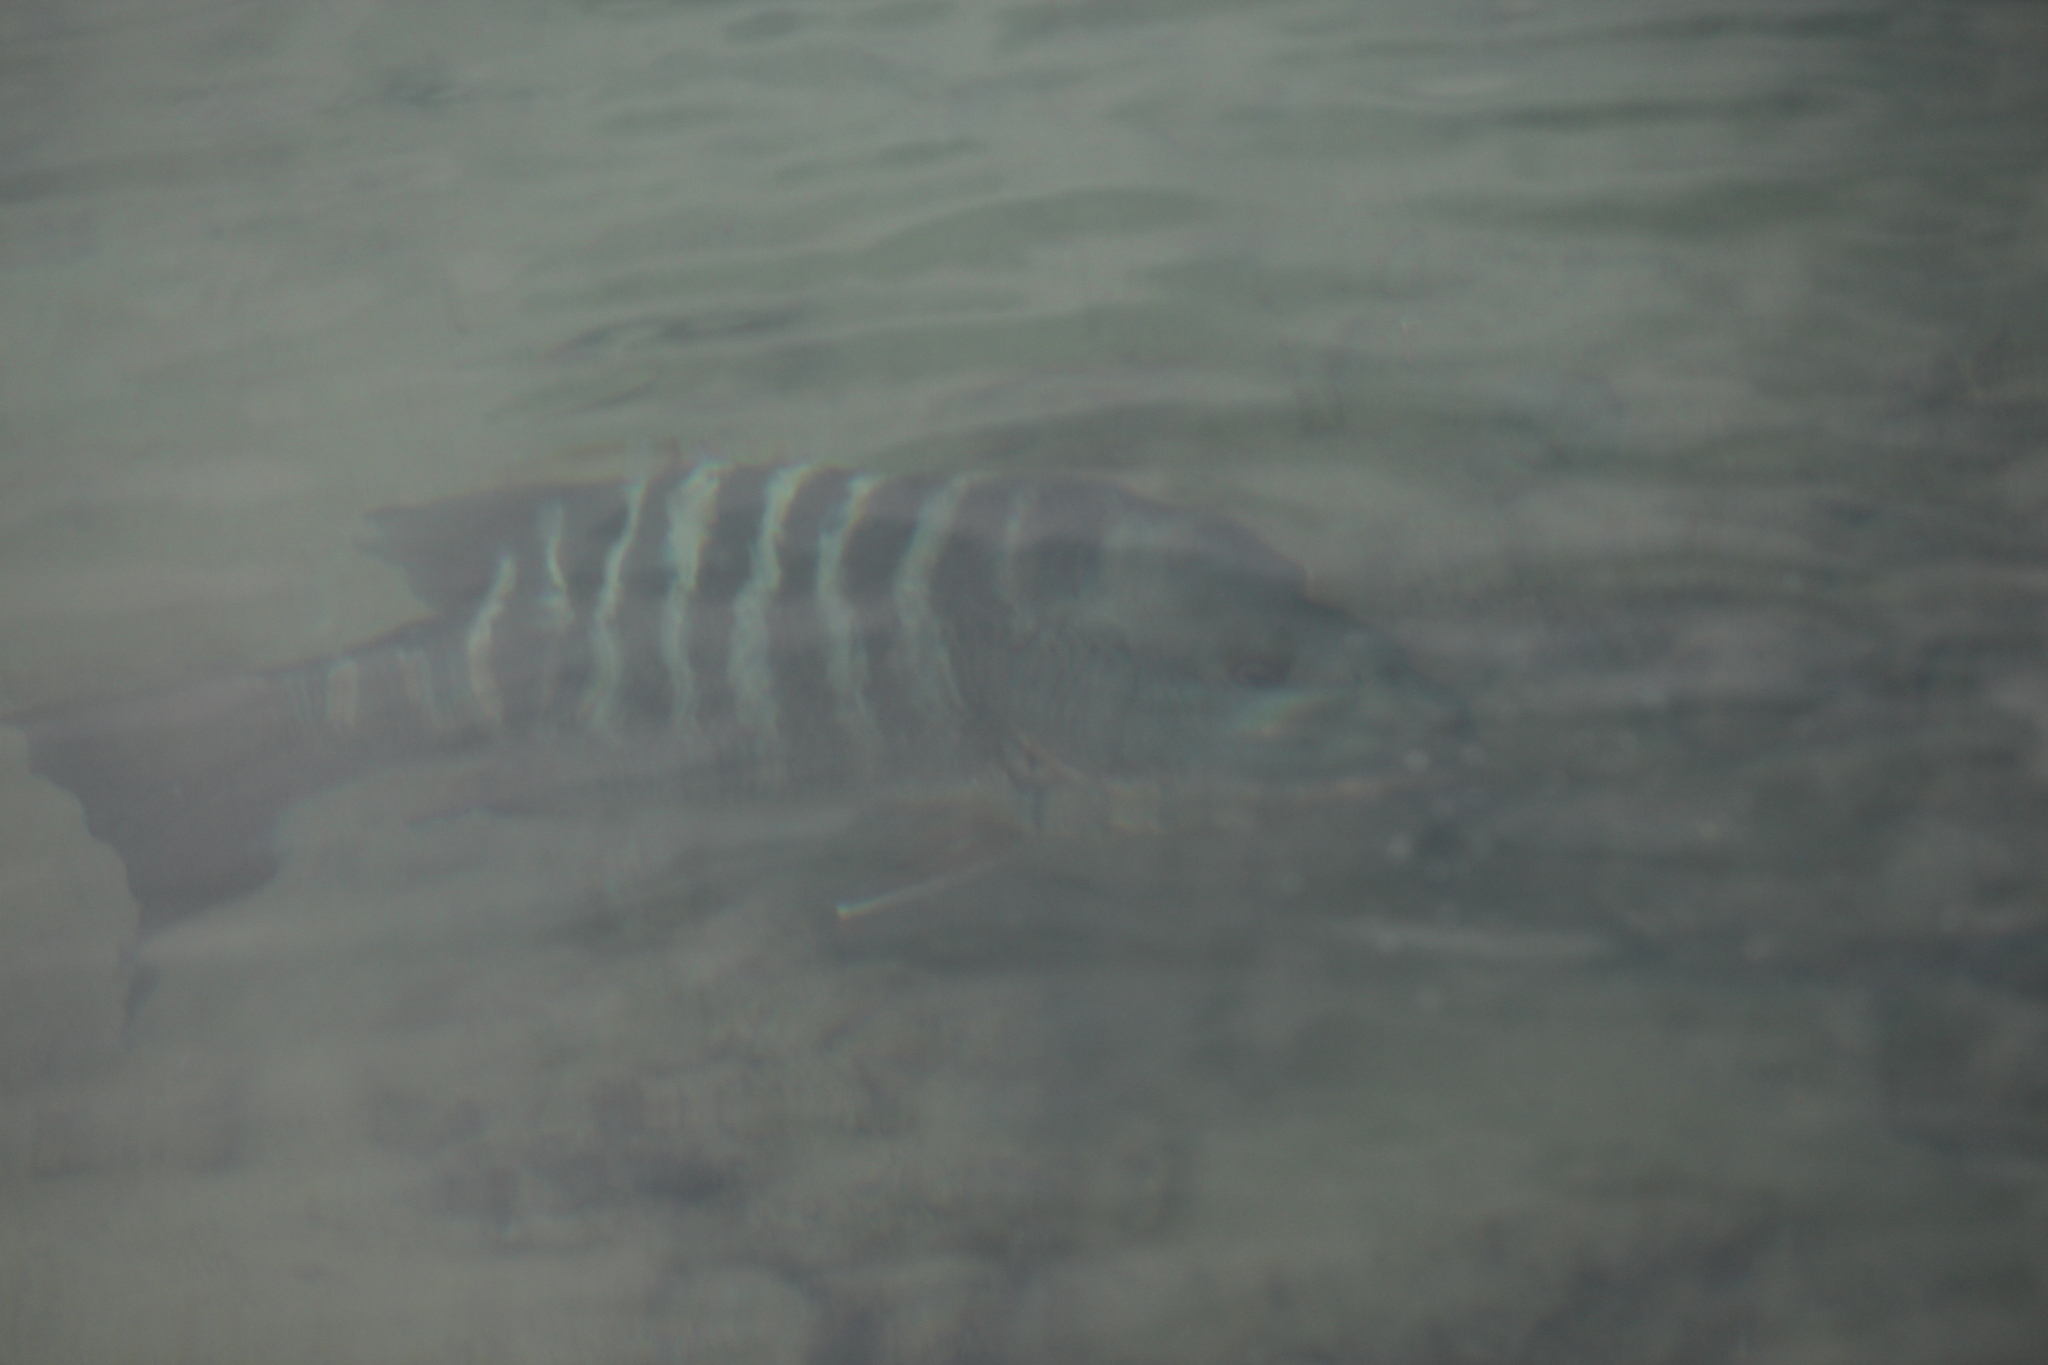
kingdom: Animalia
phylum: Chordata
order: Perciformes
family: Lutjanidae
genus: Lutjanus
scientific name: Lutjanus novemfasciatus
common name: Pacific dog snapper
